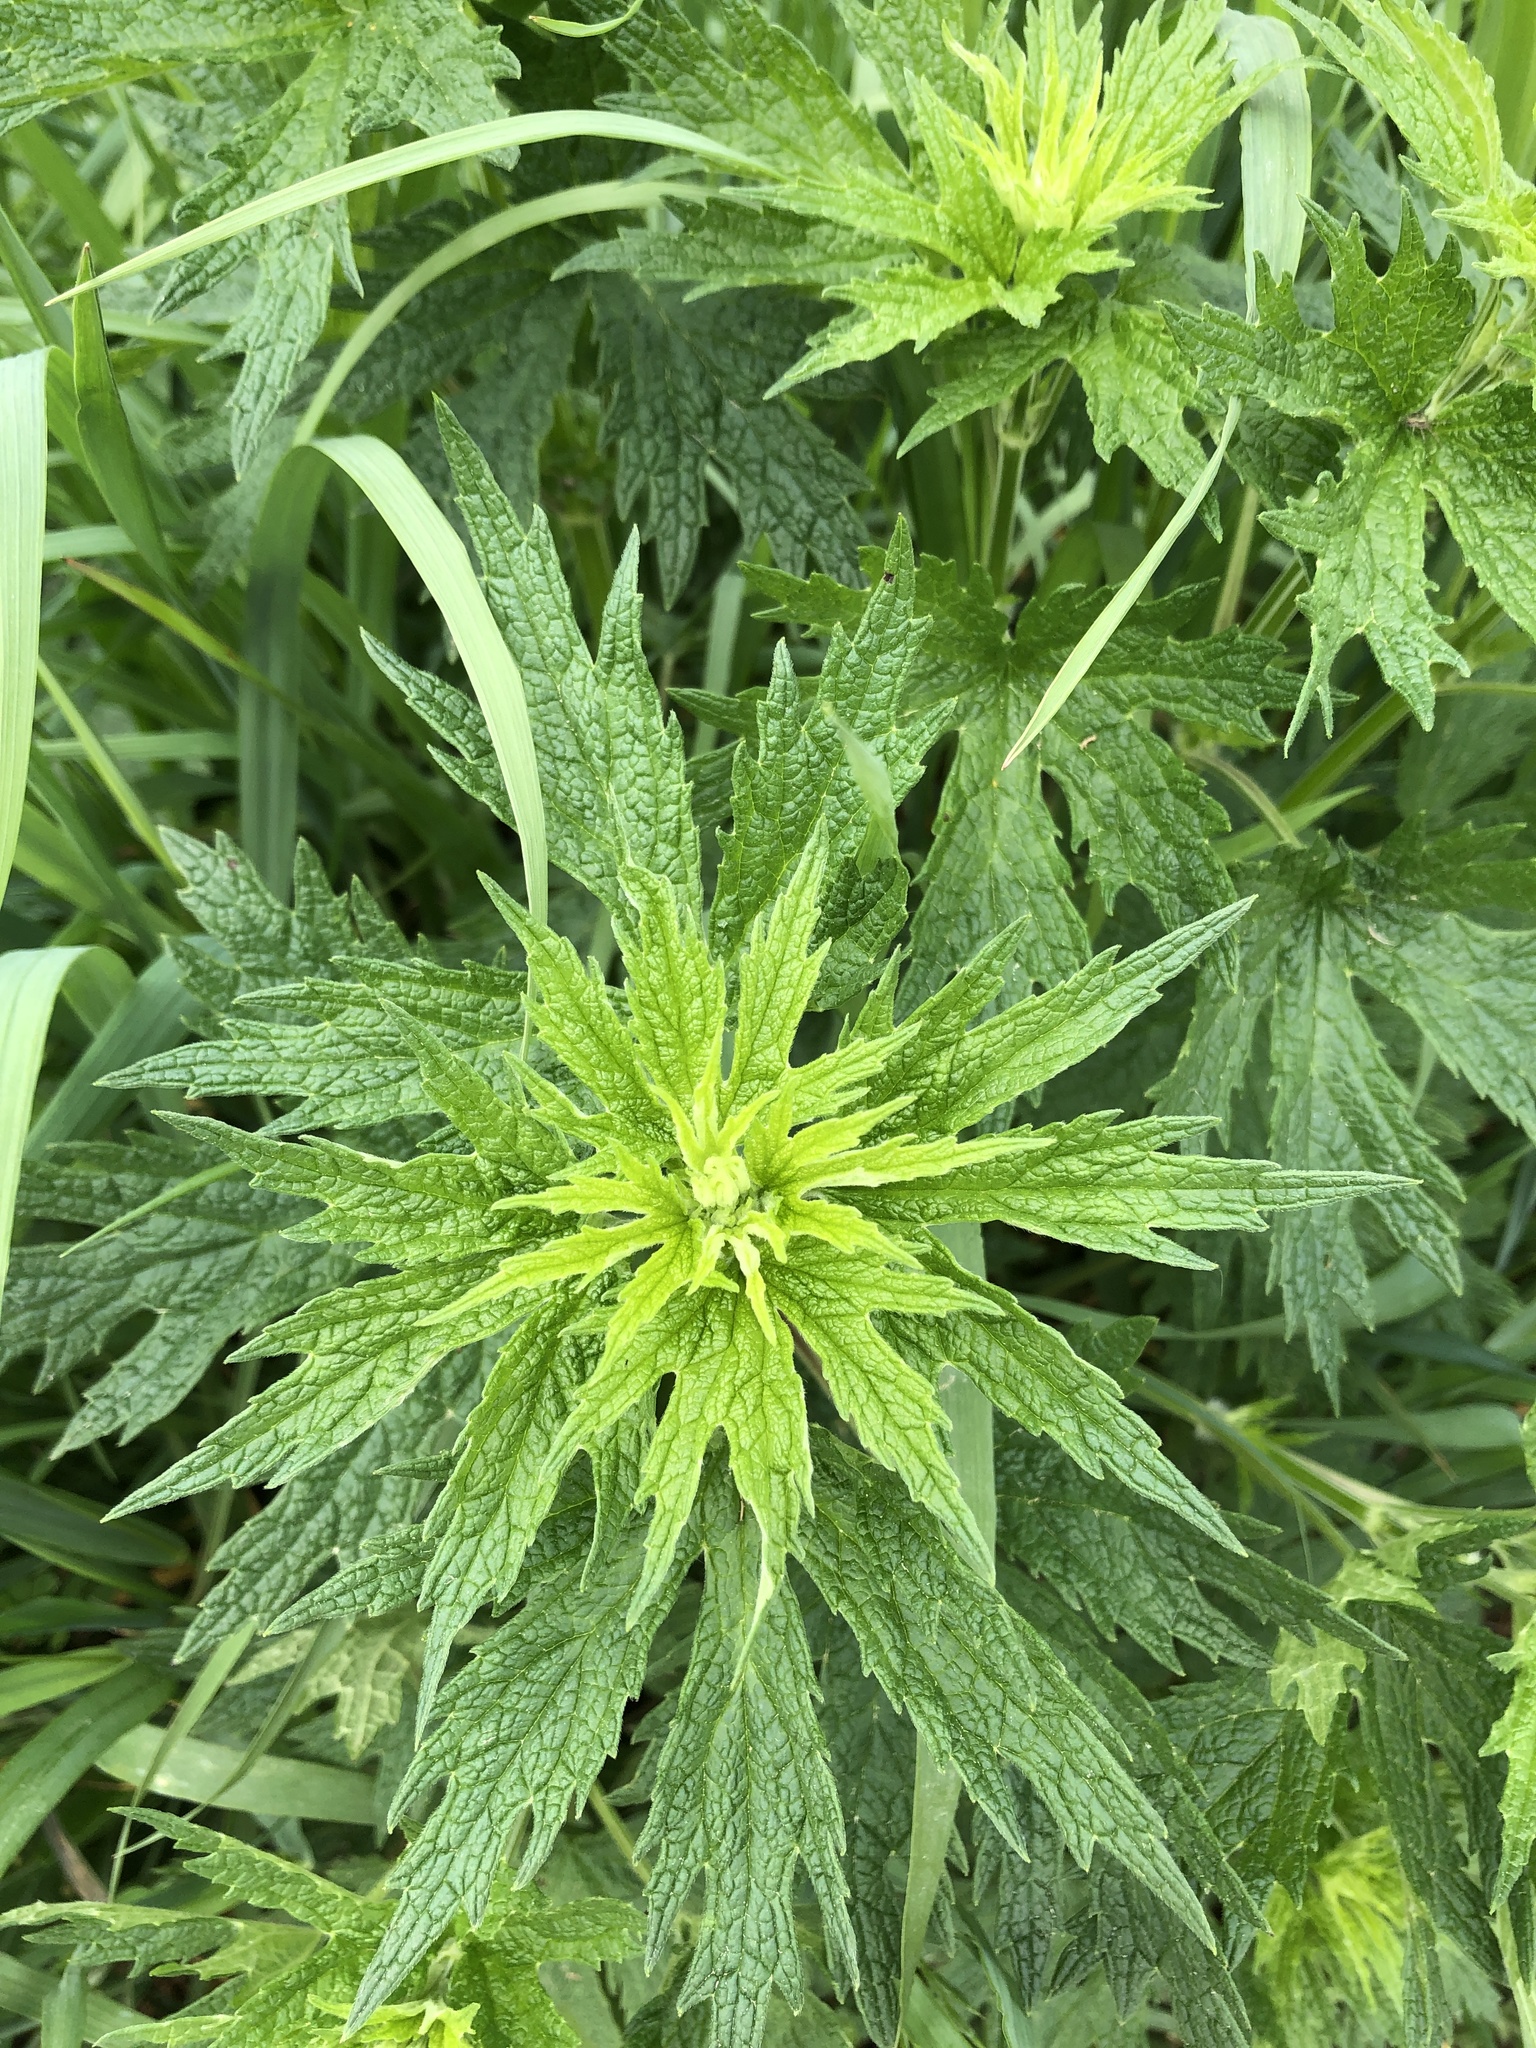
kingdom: Plantae
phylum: Tracheophyta
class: Magnoliopsida
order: Lamiales
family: Lamiaceae
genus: Leonurus
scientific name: Leonurus cardiaca
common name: Motherwort
